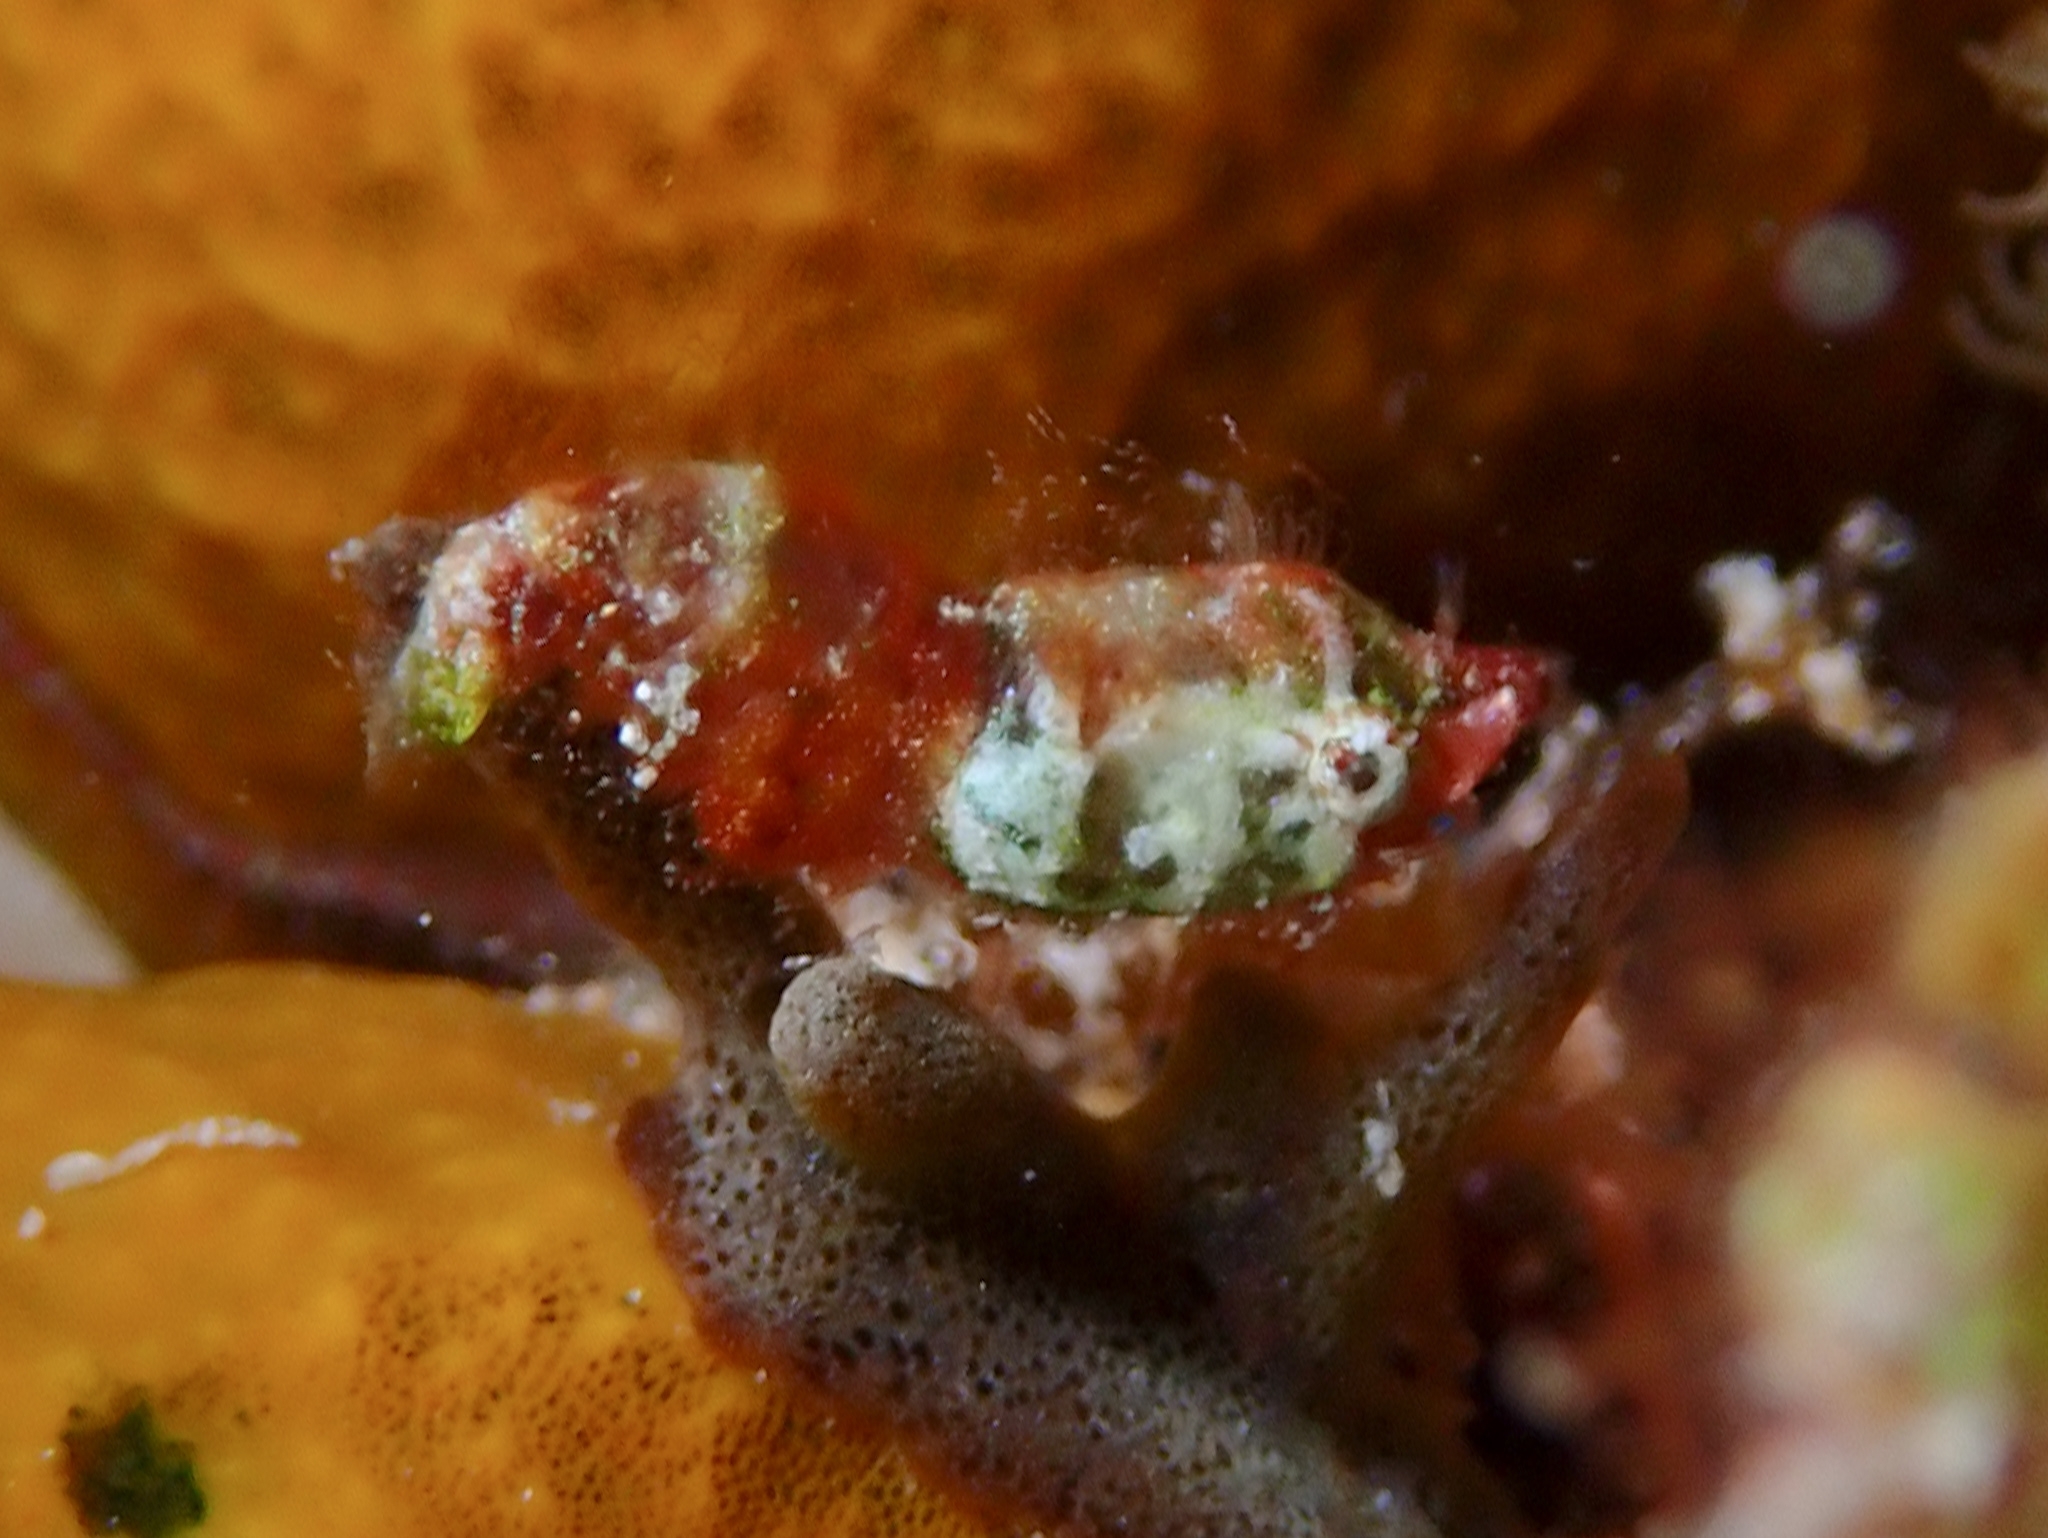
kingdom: Animalia
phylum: Arthropoda
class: Malacostraca
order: Decapoda
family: Hippolytidae
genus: Trachycaris
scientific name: Trachycaris rugosa
